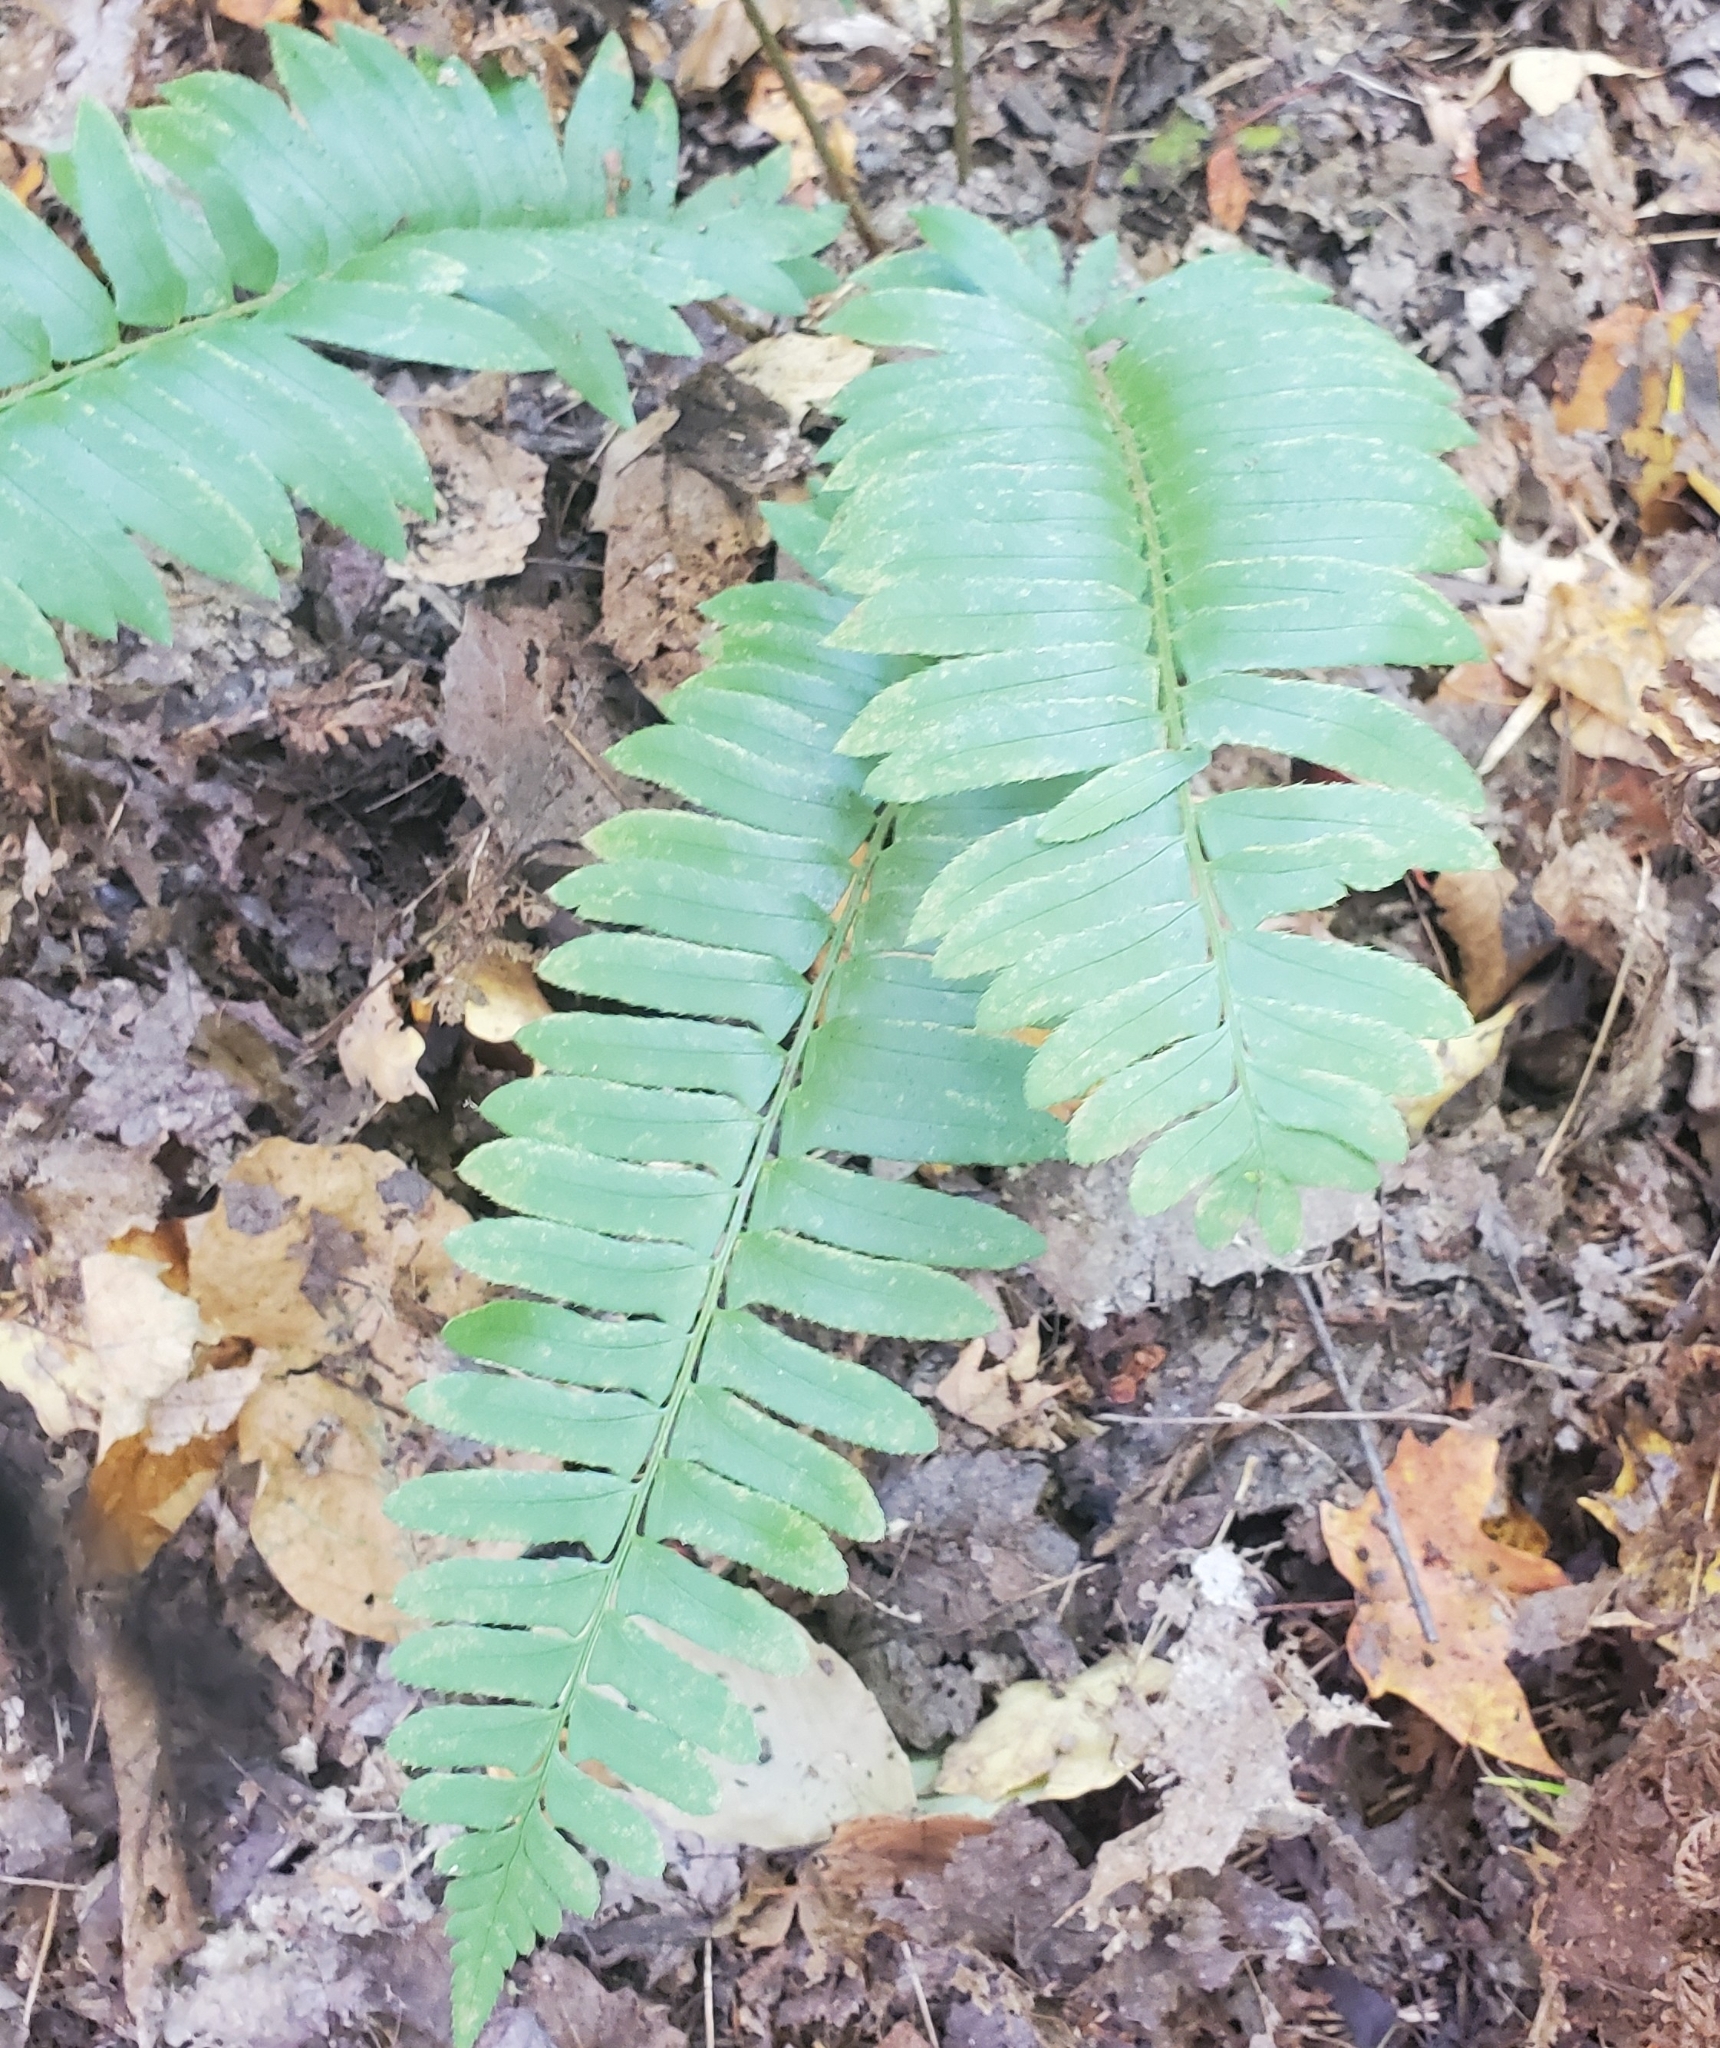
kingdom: Plantae
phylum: Tracheophyta
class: Polypodiopsida
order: Polypodiales
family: Dryopteridaceae
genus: Polystichum
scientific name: Polystichum acrostichoides
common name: Christmas fern
